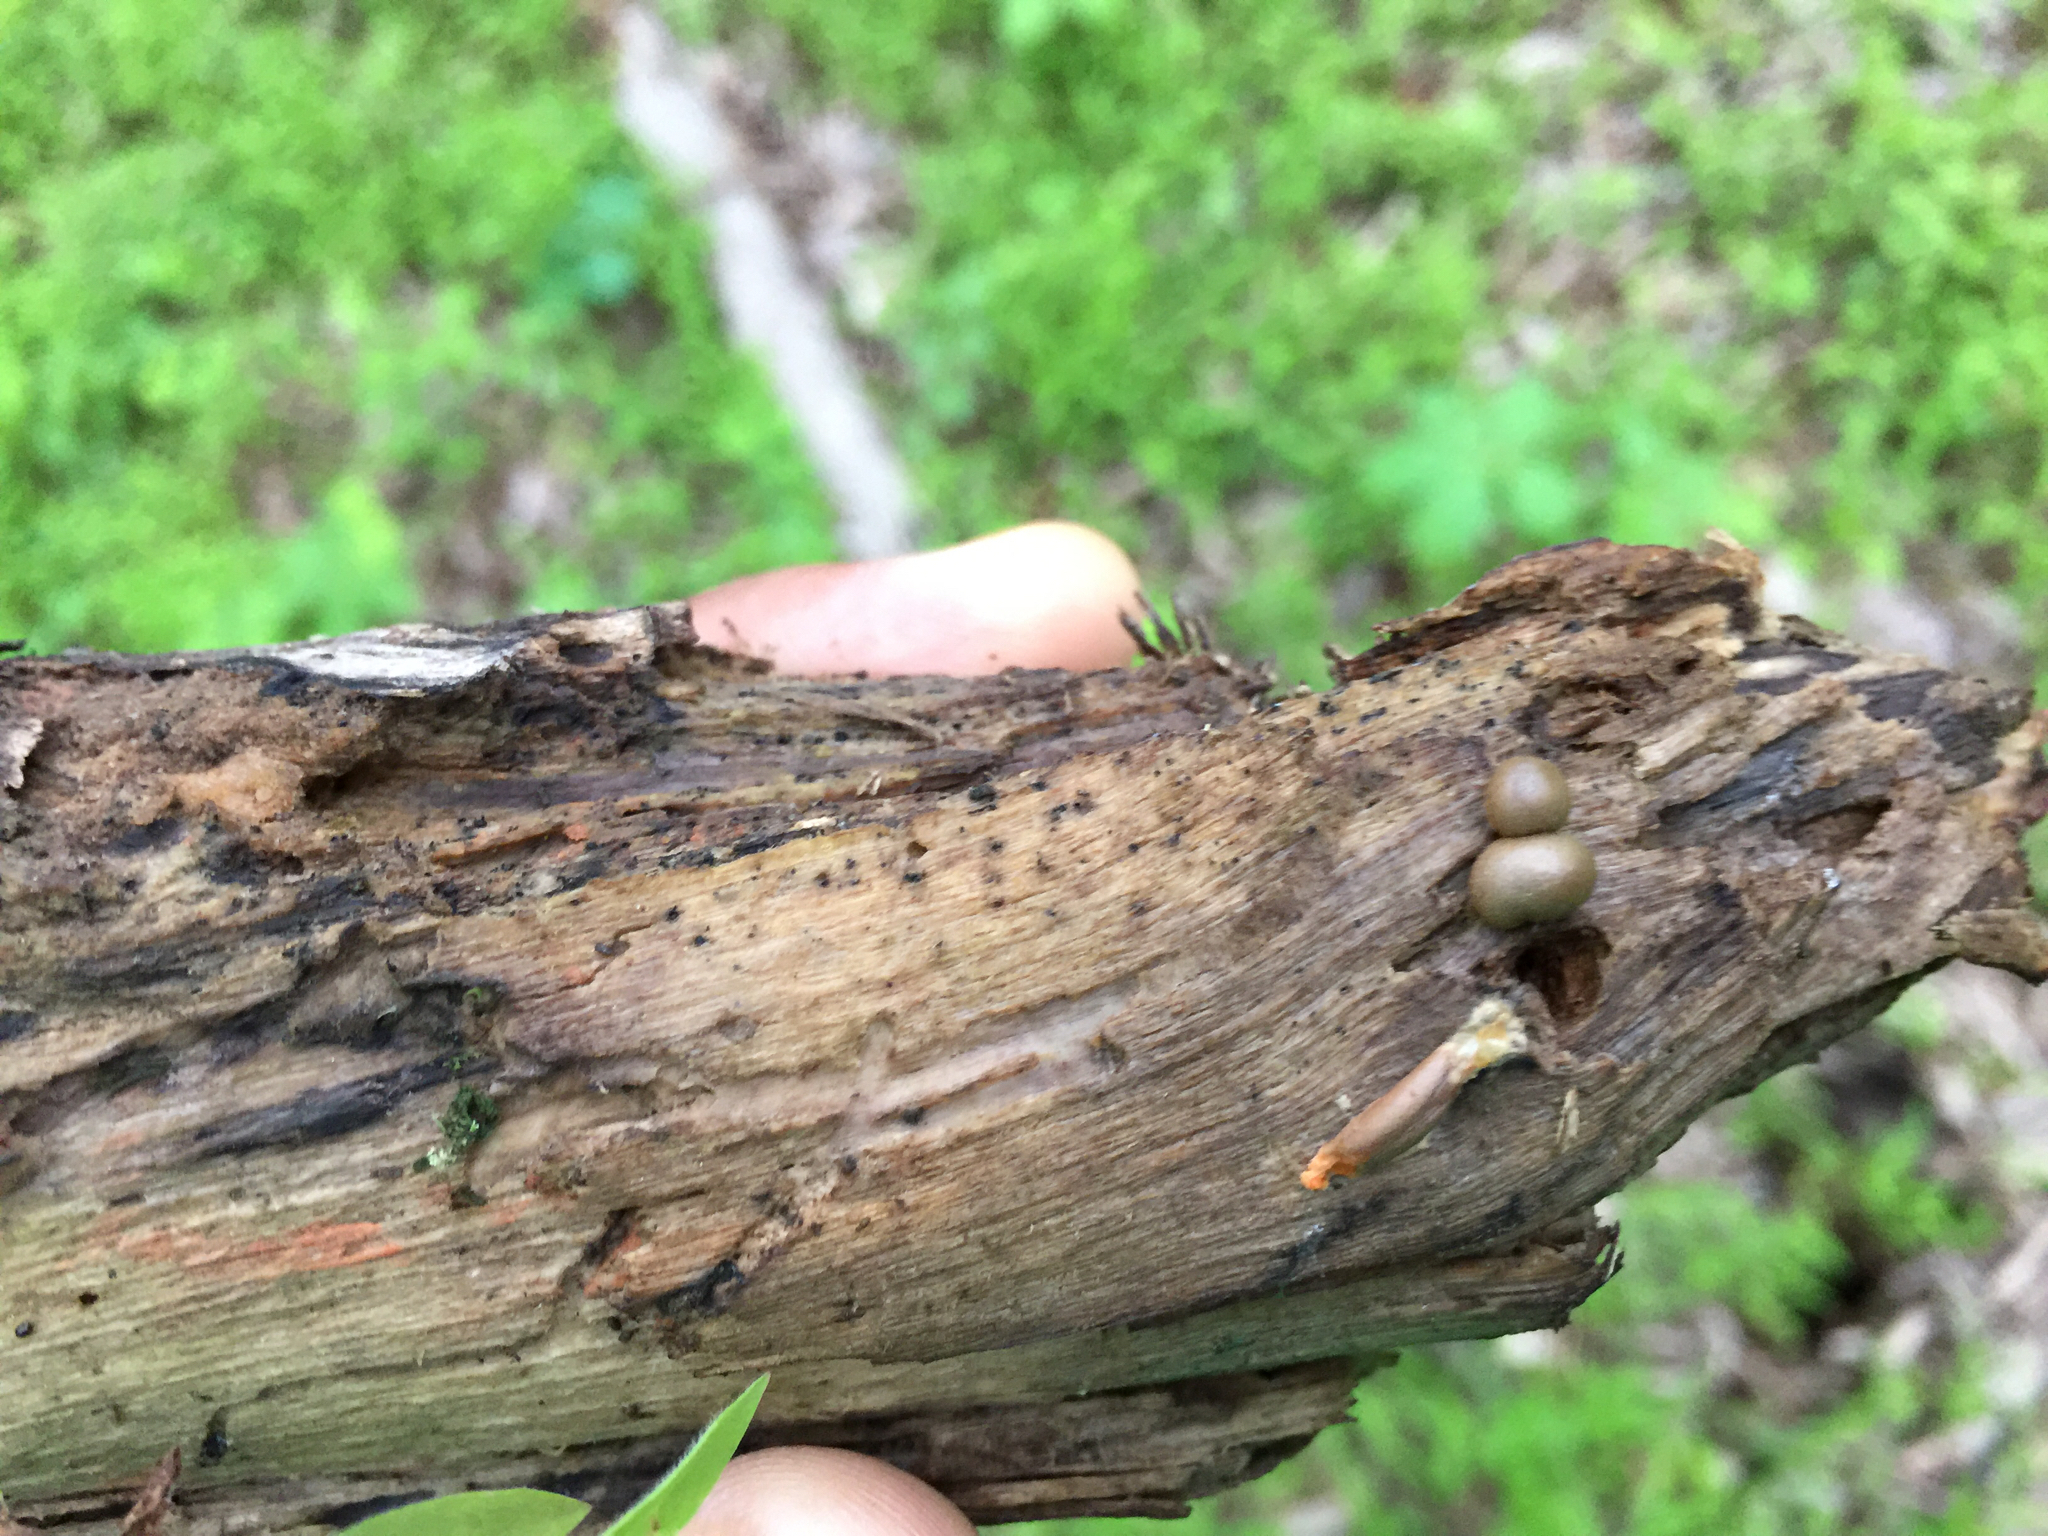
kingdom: Protozoa
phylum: Mycetozoa
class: Myxomycetes
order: Cribrariales
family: Tubiferaceae
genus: Lycogala
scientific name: Lycogala epidendrum
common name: Wolf's milk
